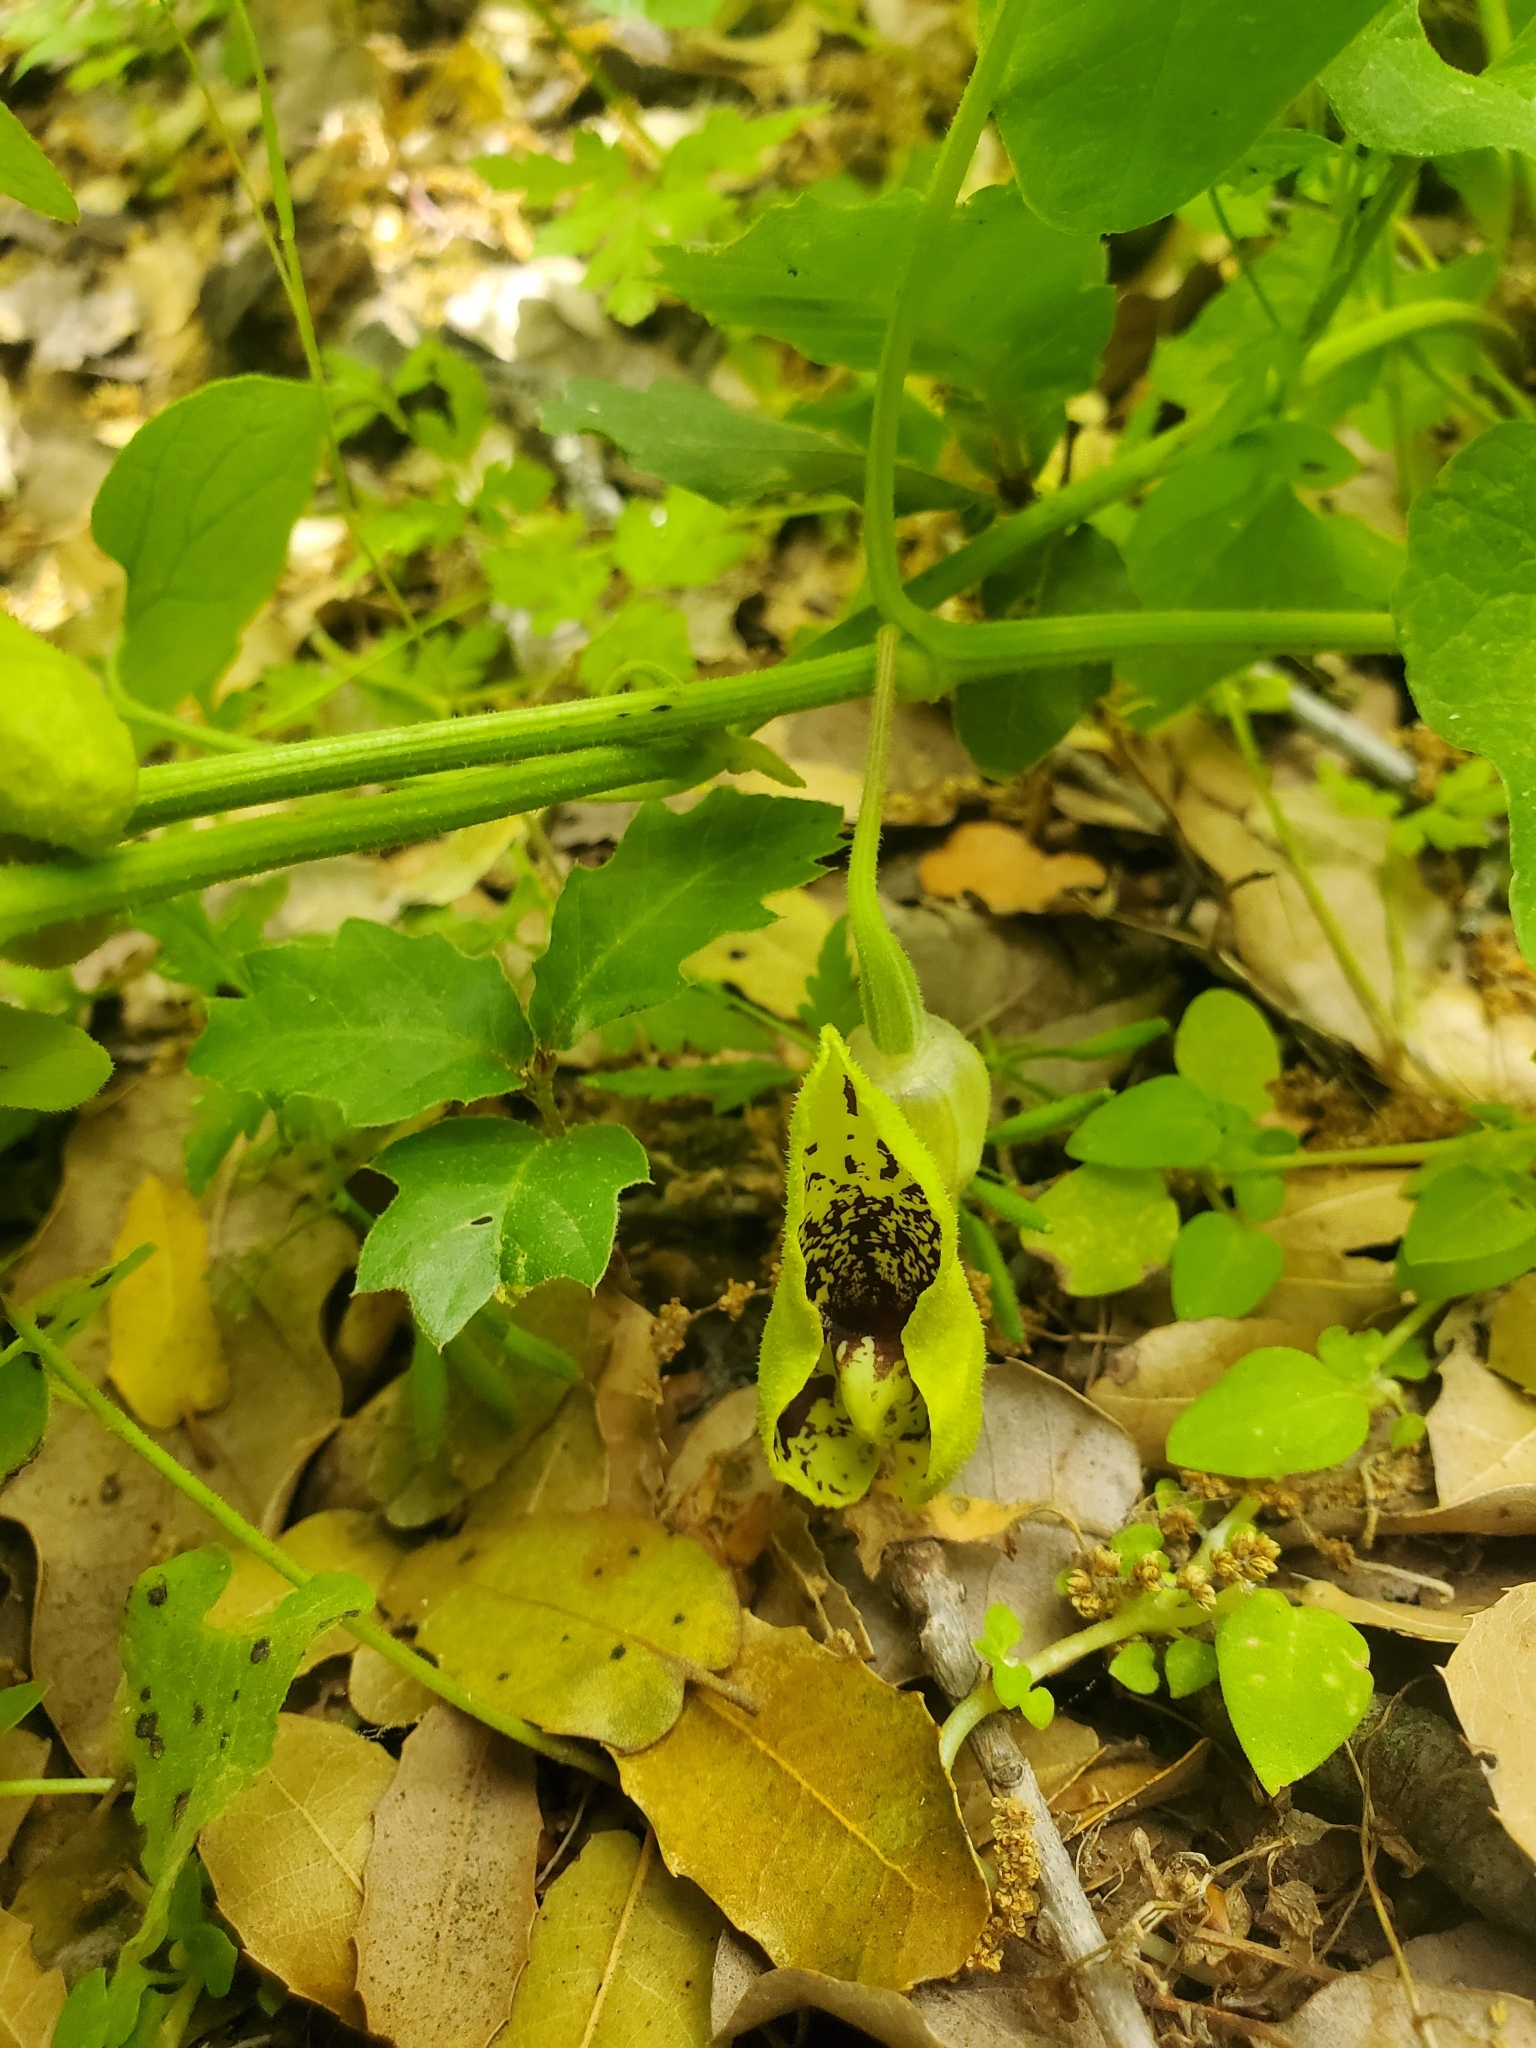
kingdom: Plantae
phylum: Tracheophyta
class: Magnoliopsida
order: Piperales
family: Aristolochiaceae
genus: Aristolochia
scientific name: Aristolochia paecilantha
